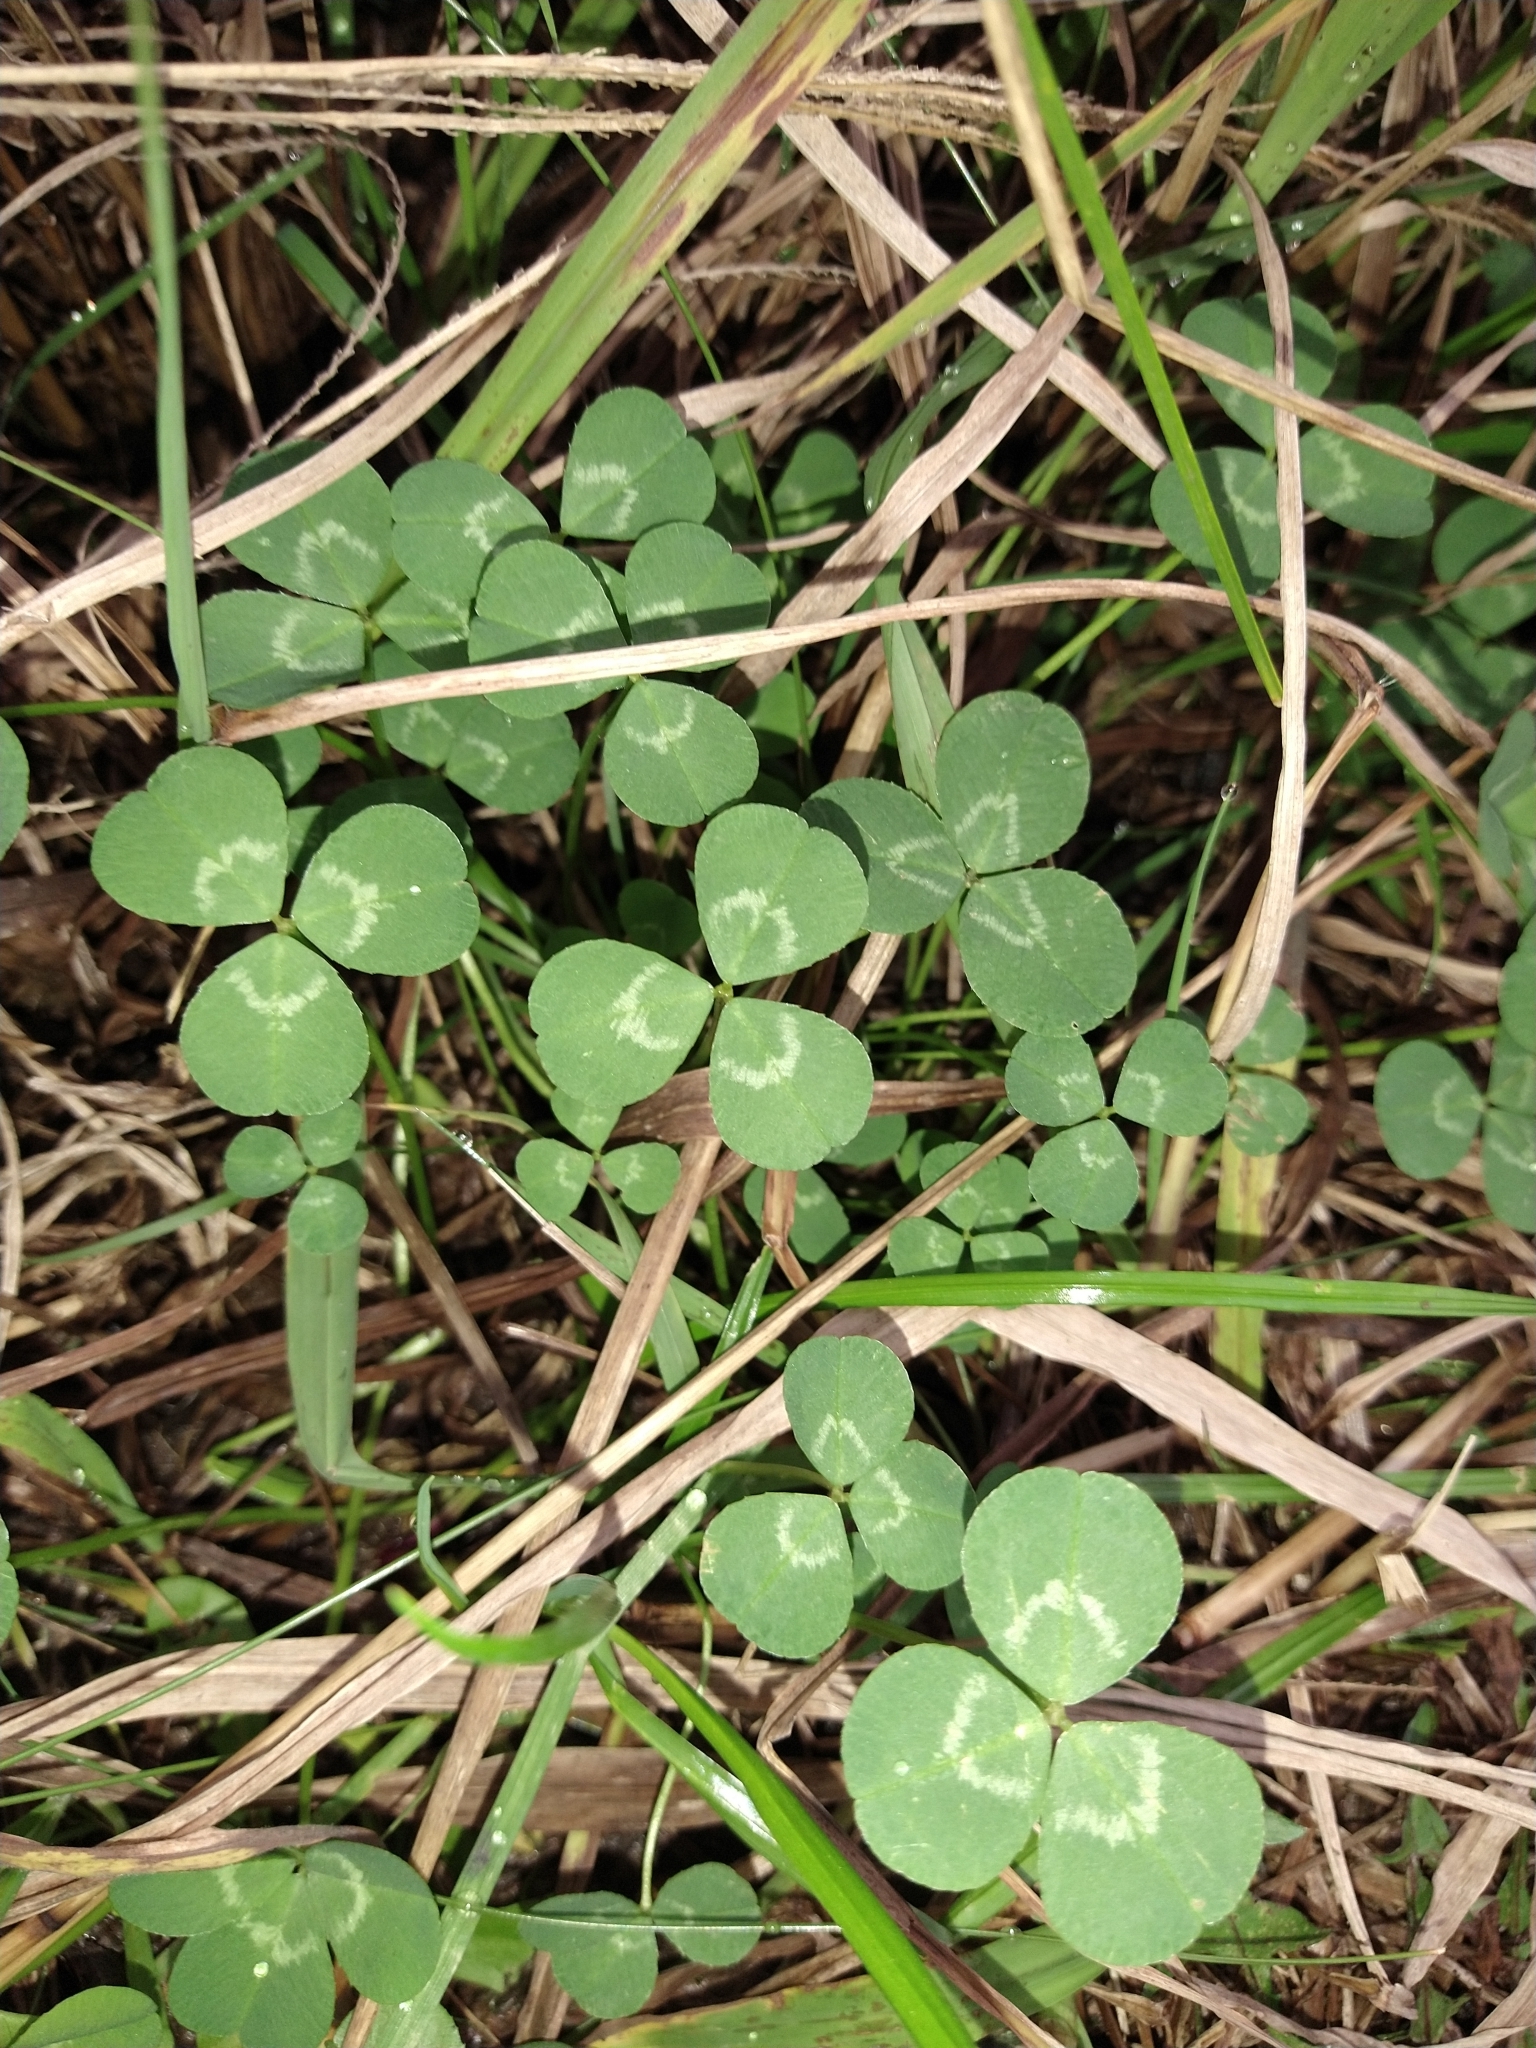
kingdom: Plantae
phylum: Tracheophyta
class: Magnoliopsida
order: Fabales
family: Fabaceae
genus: Trifolium
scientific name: Trifolium repens
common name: White clover
